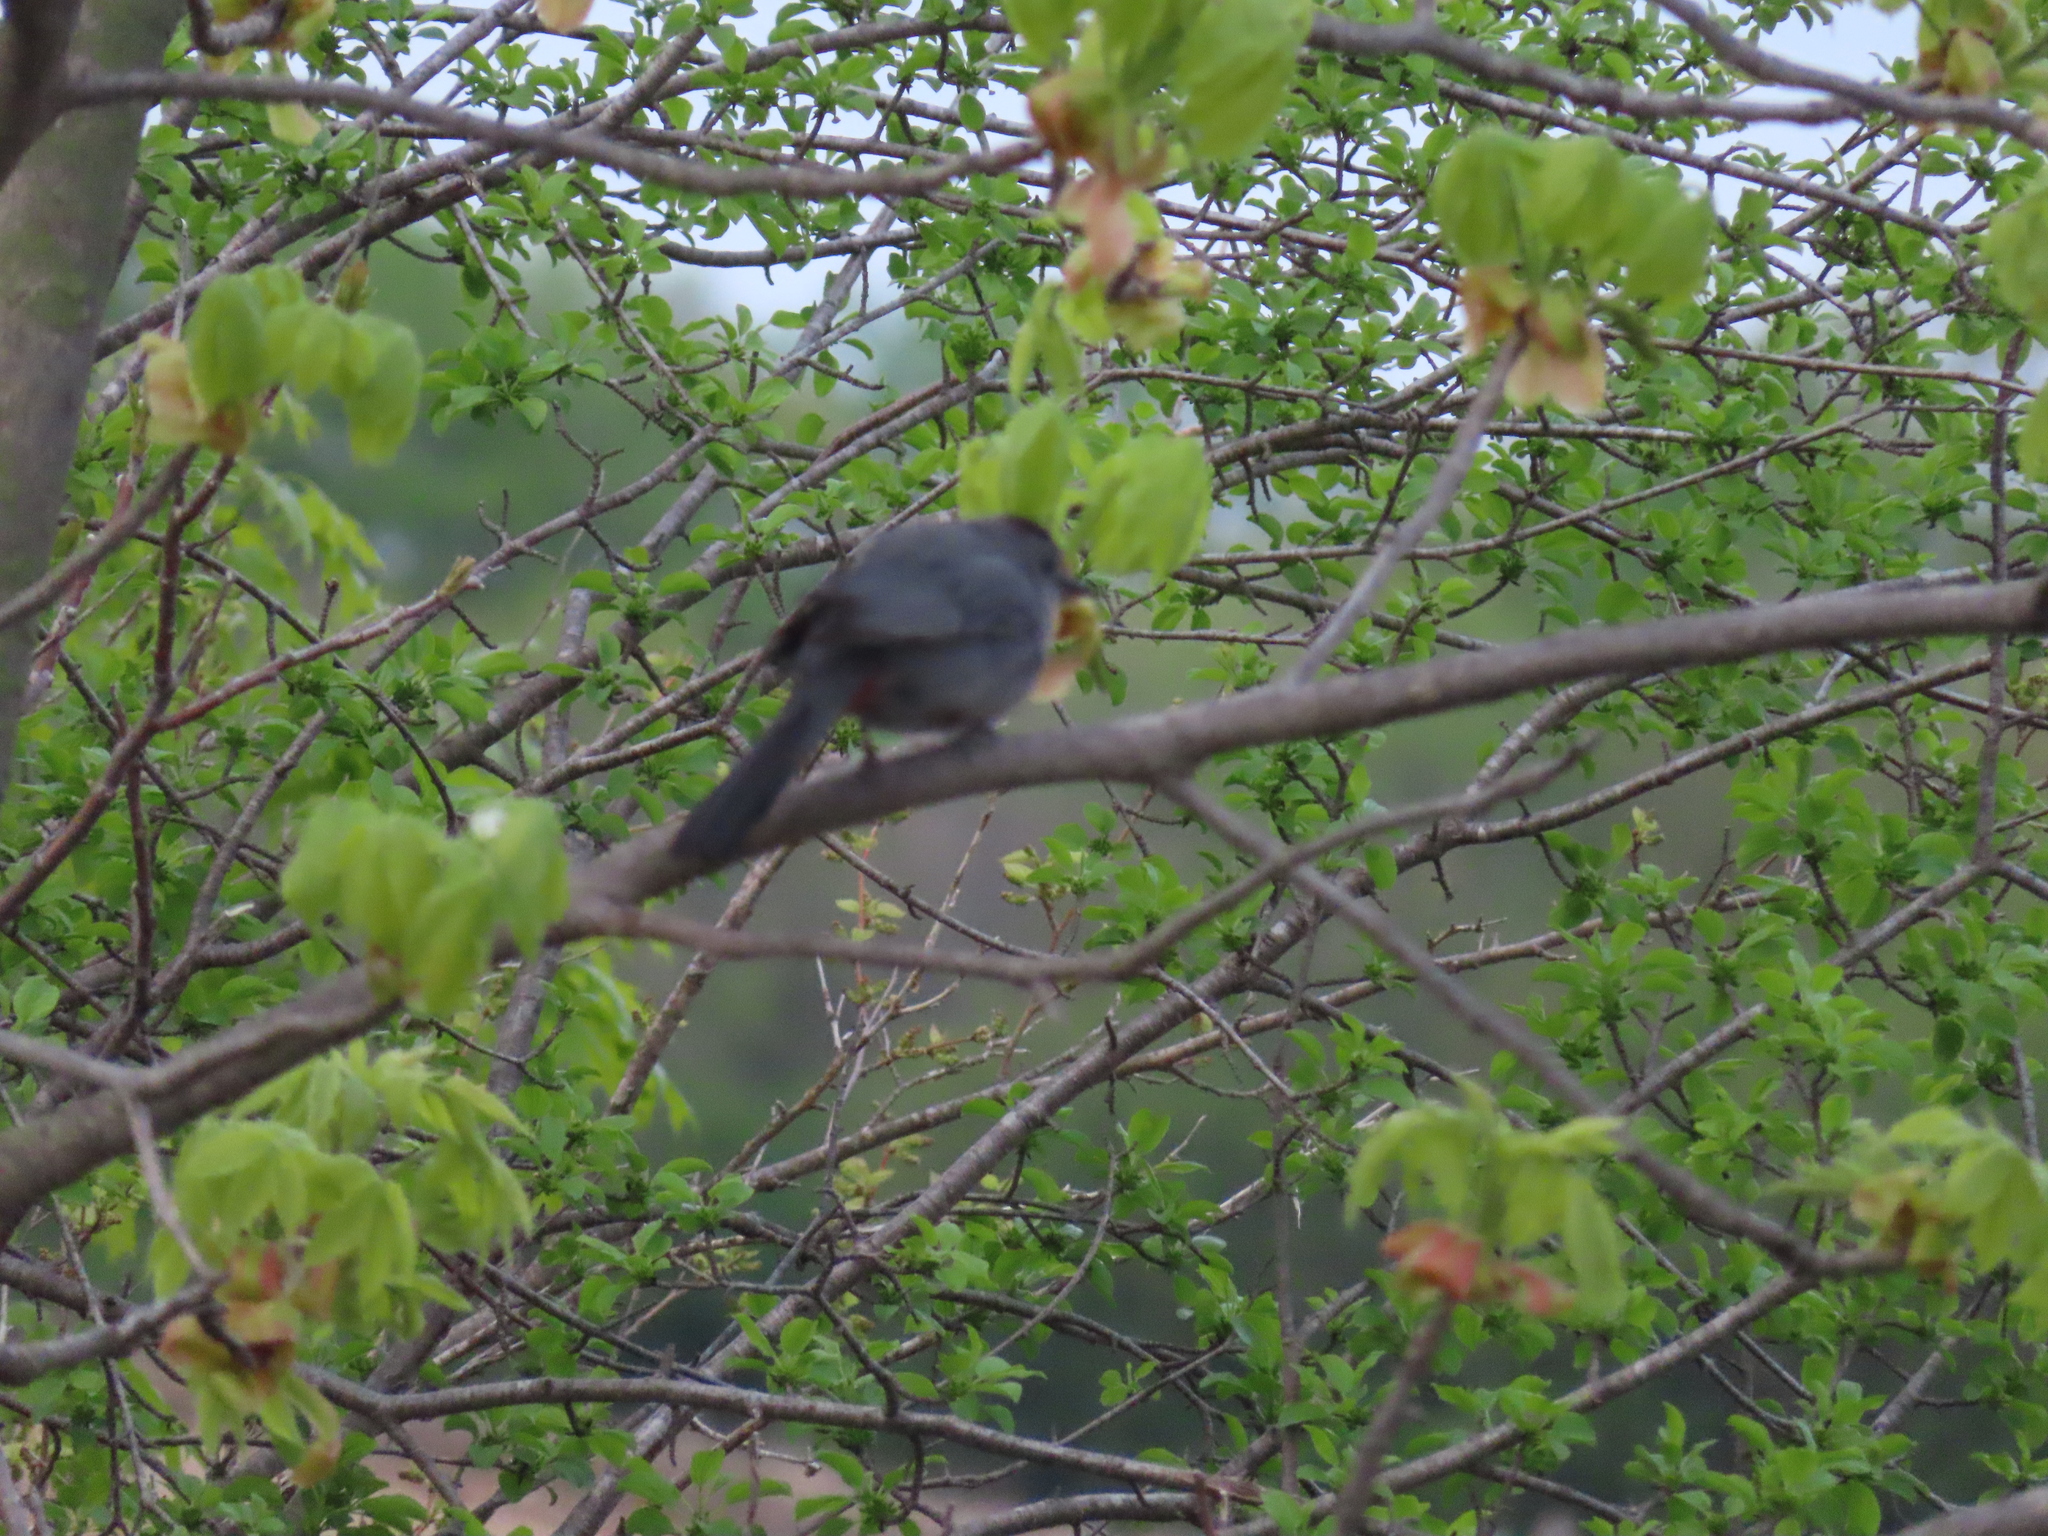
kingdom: Animalia
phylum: Chordata
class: Aves
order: Passeriformes
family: Mimidae
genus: Dumetella
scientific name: Dumetella carolinensis
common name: Gray catbird
